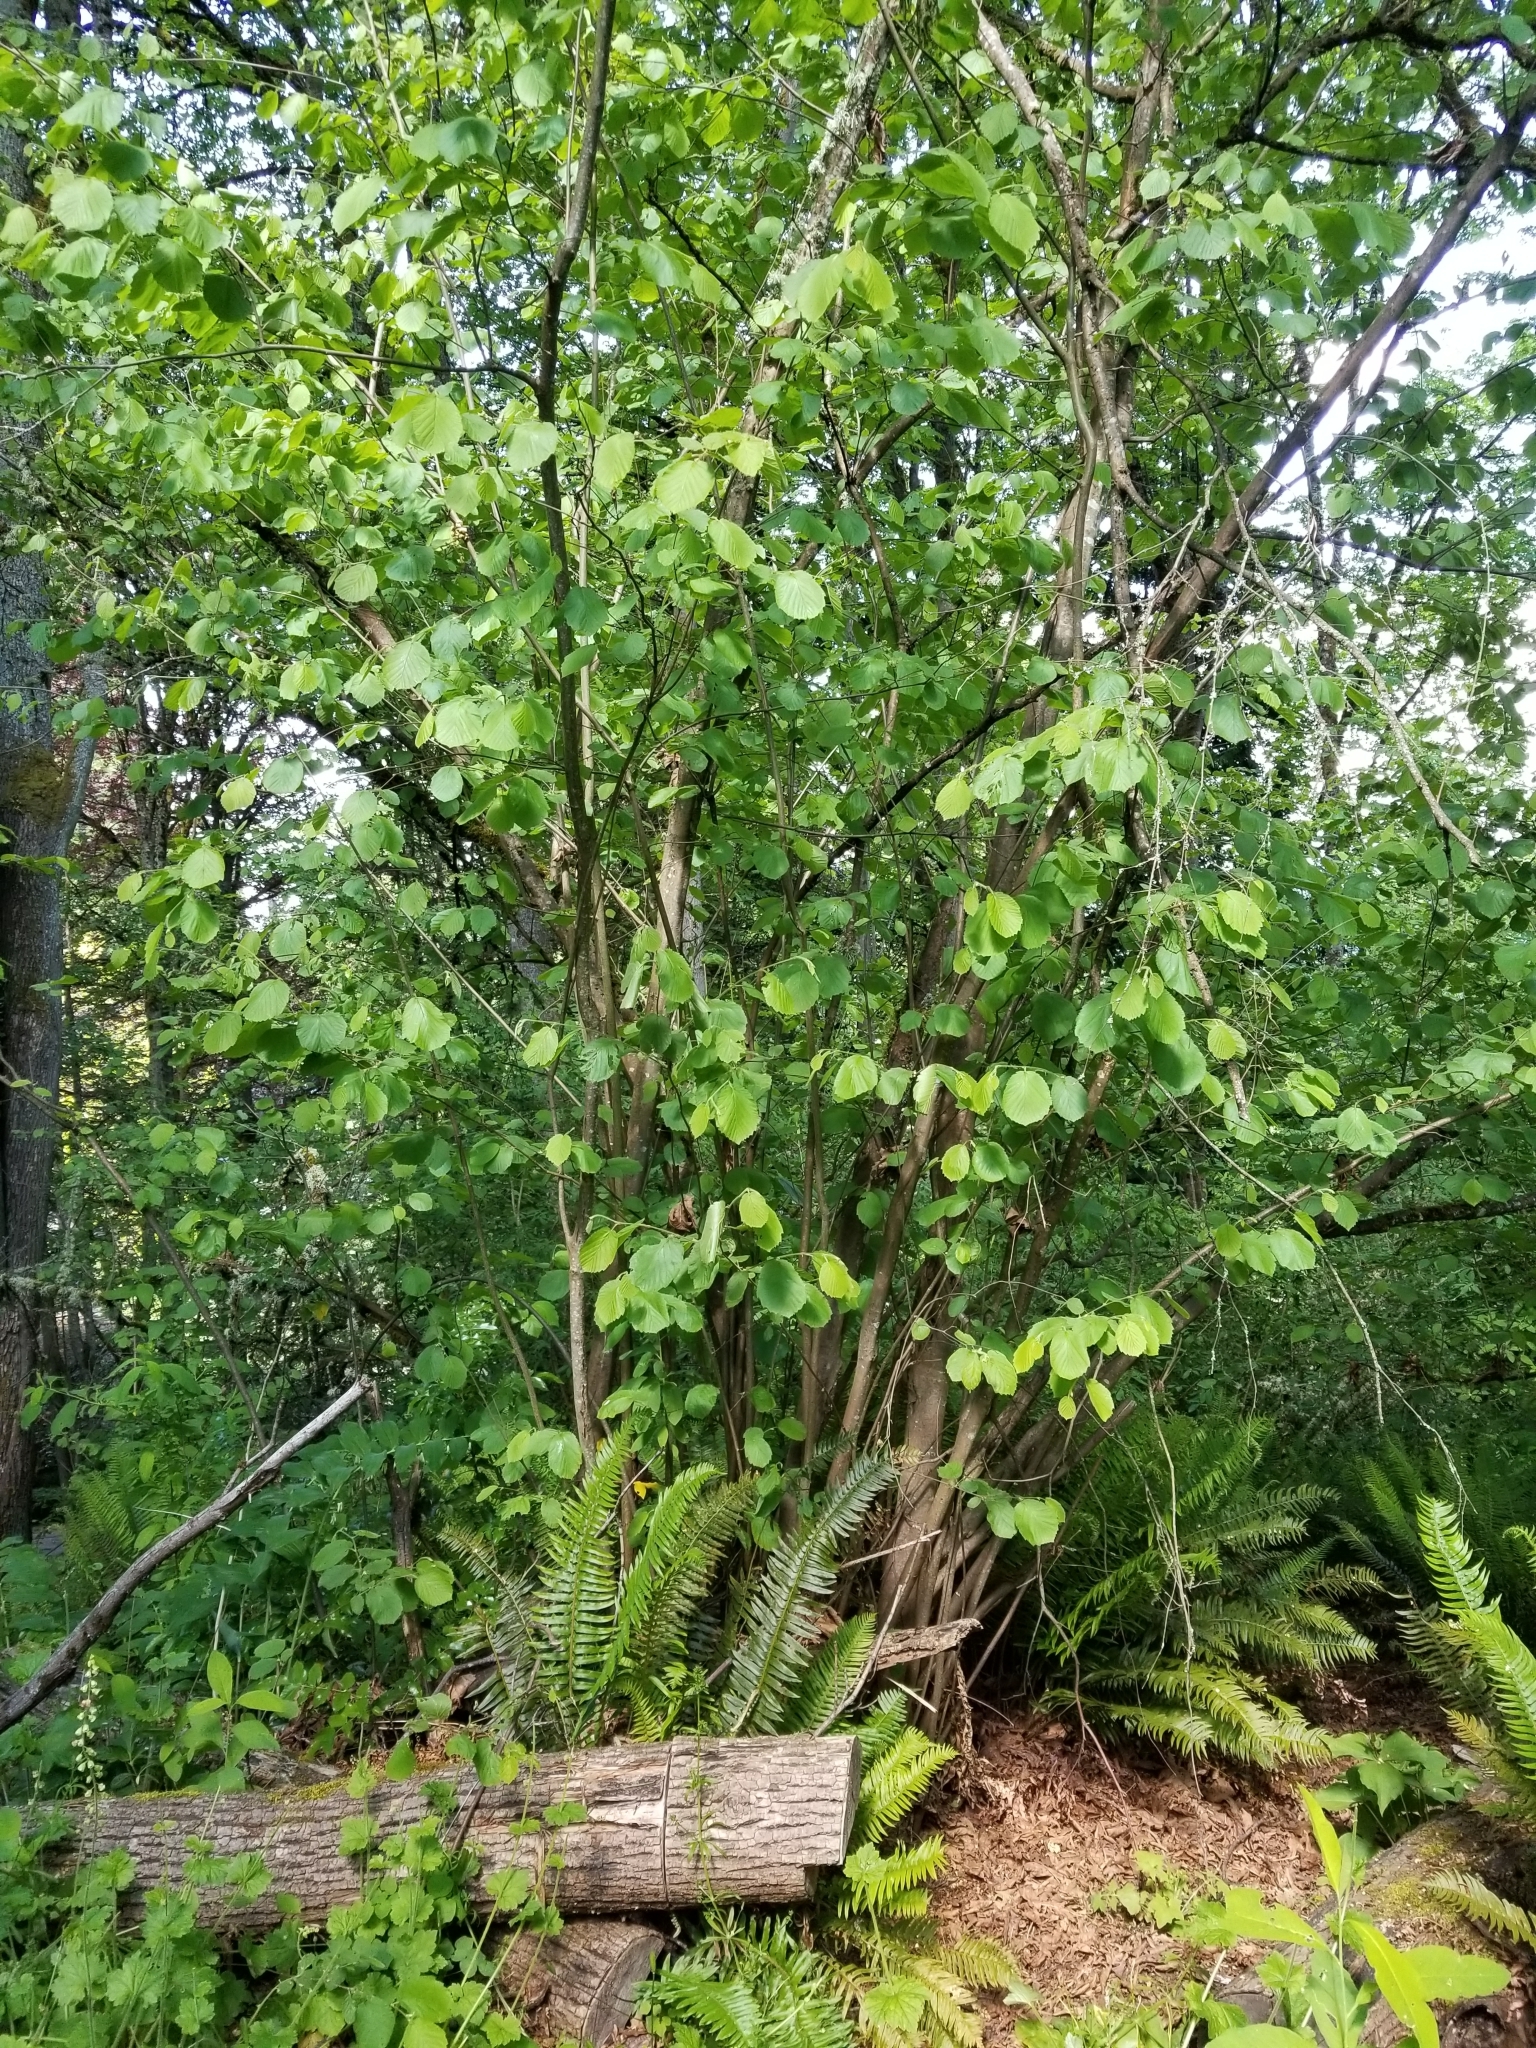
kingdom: Plantae
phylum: Tracheophyta
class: Magnoliopsida
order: Fagales
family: Betulaceae
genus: Corylus
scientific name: Corylus cornuta
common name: Beaked hazel
